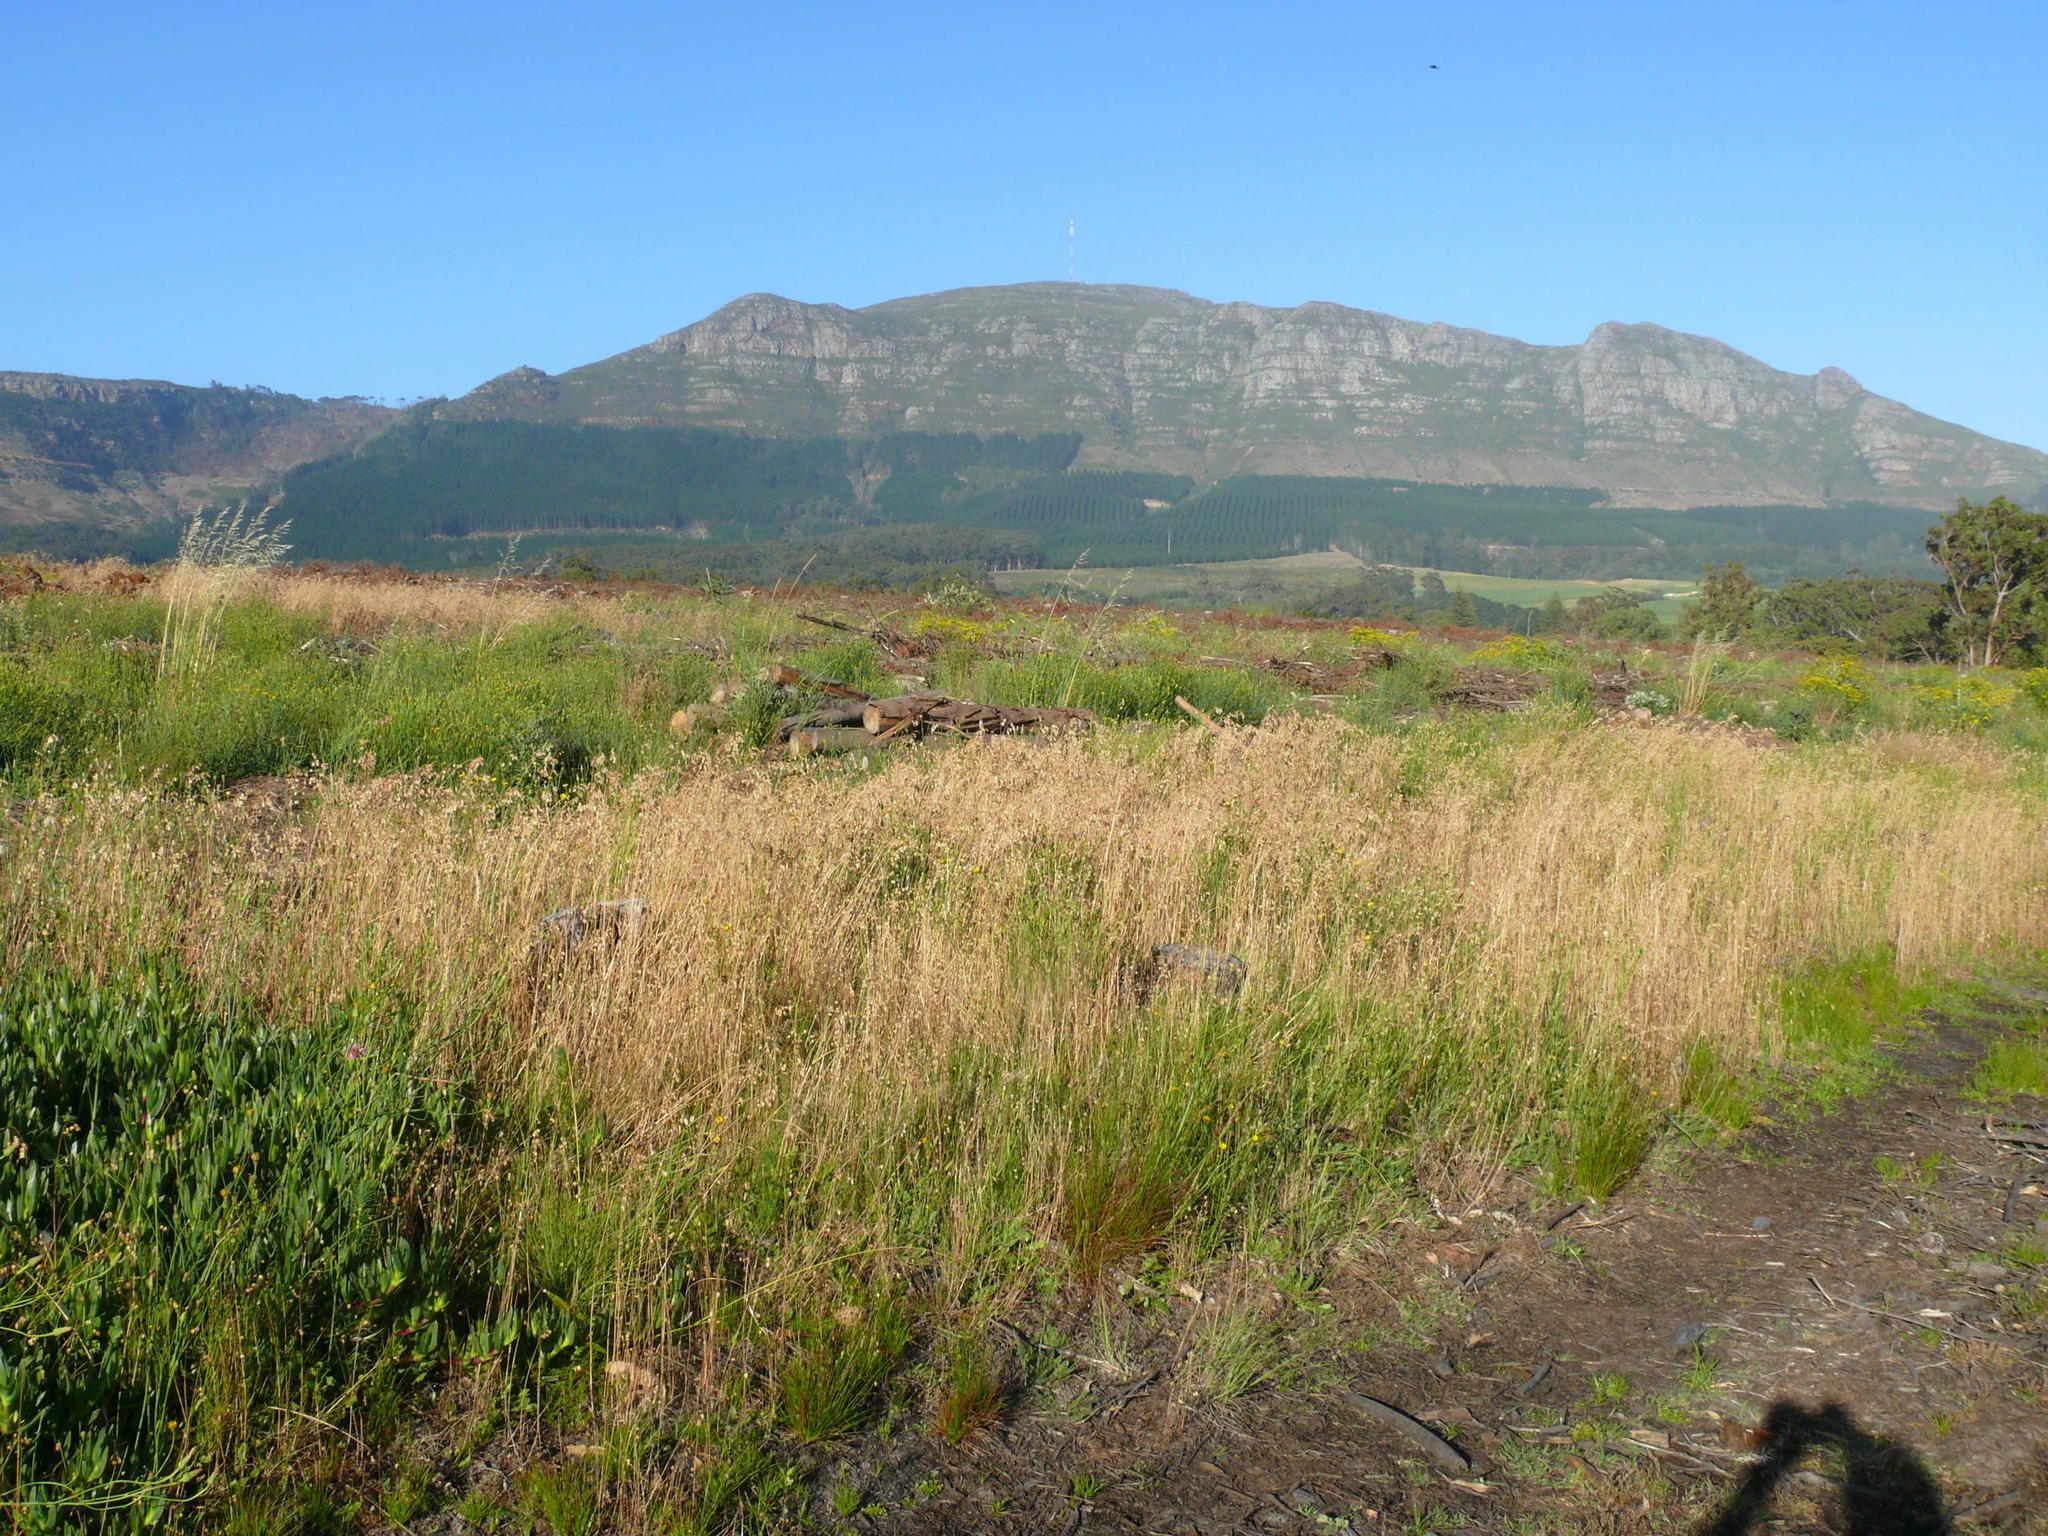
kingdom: Plantae
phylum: Tracheophyta
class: Liliopsida
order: Poales
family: Poaceae
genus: Briza
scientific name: Briza maxima
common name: Big quakinggrass
